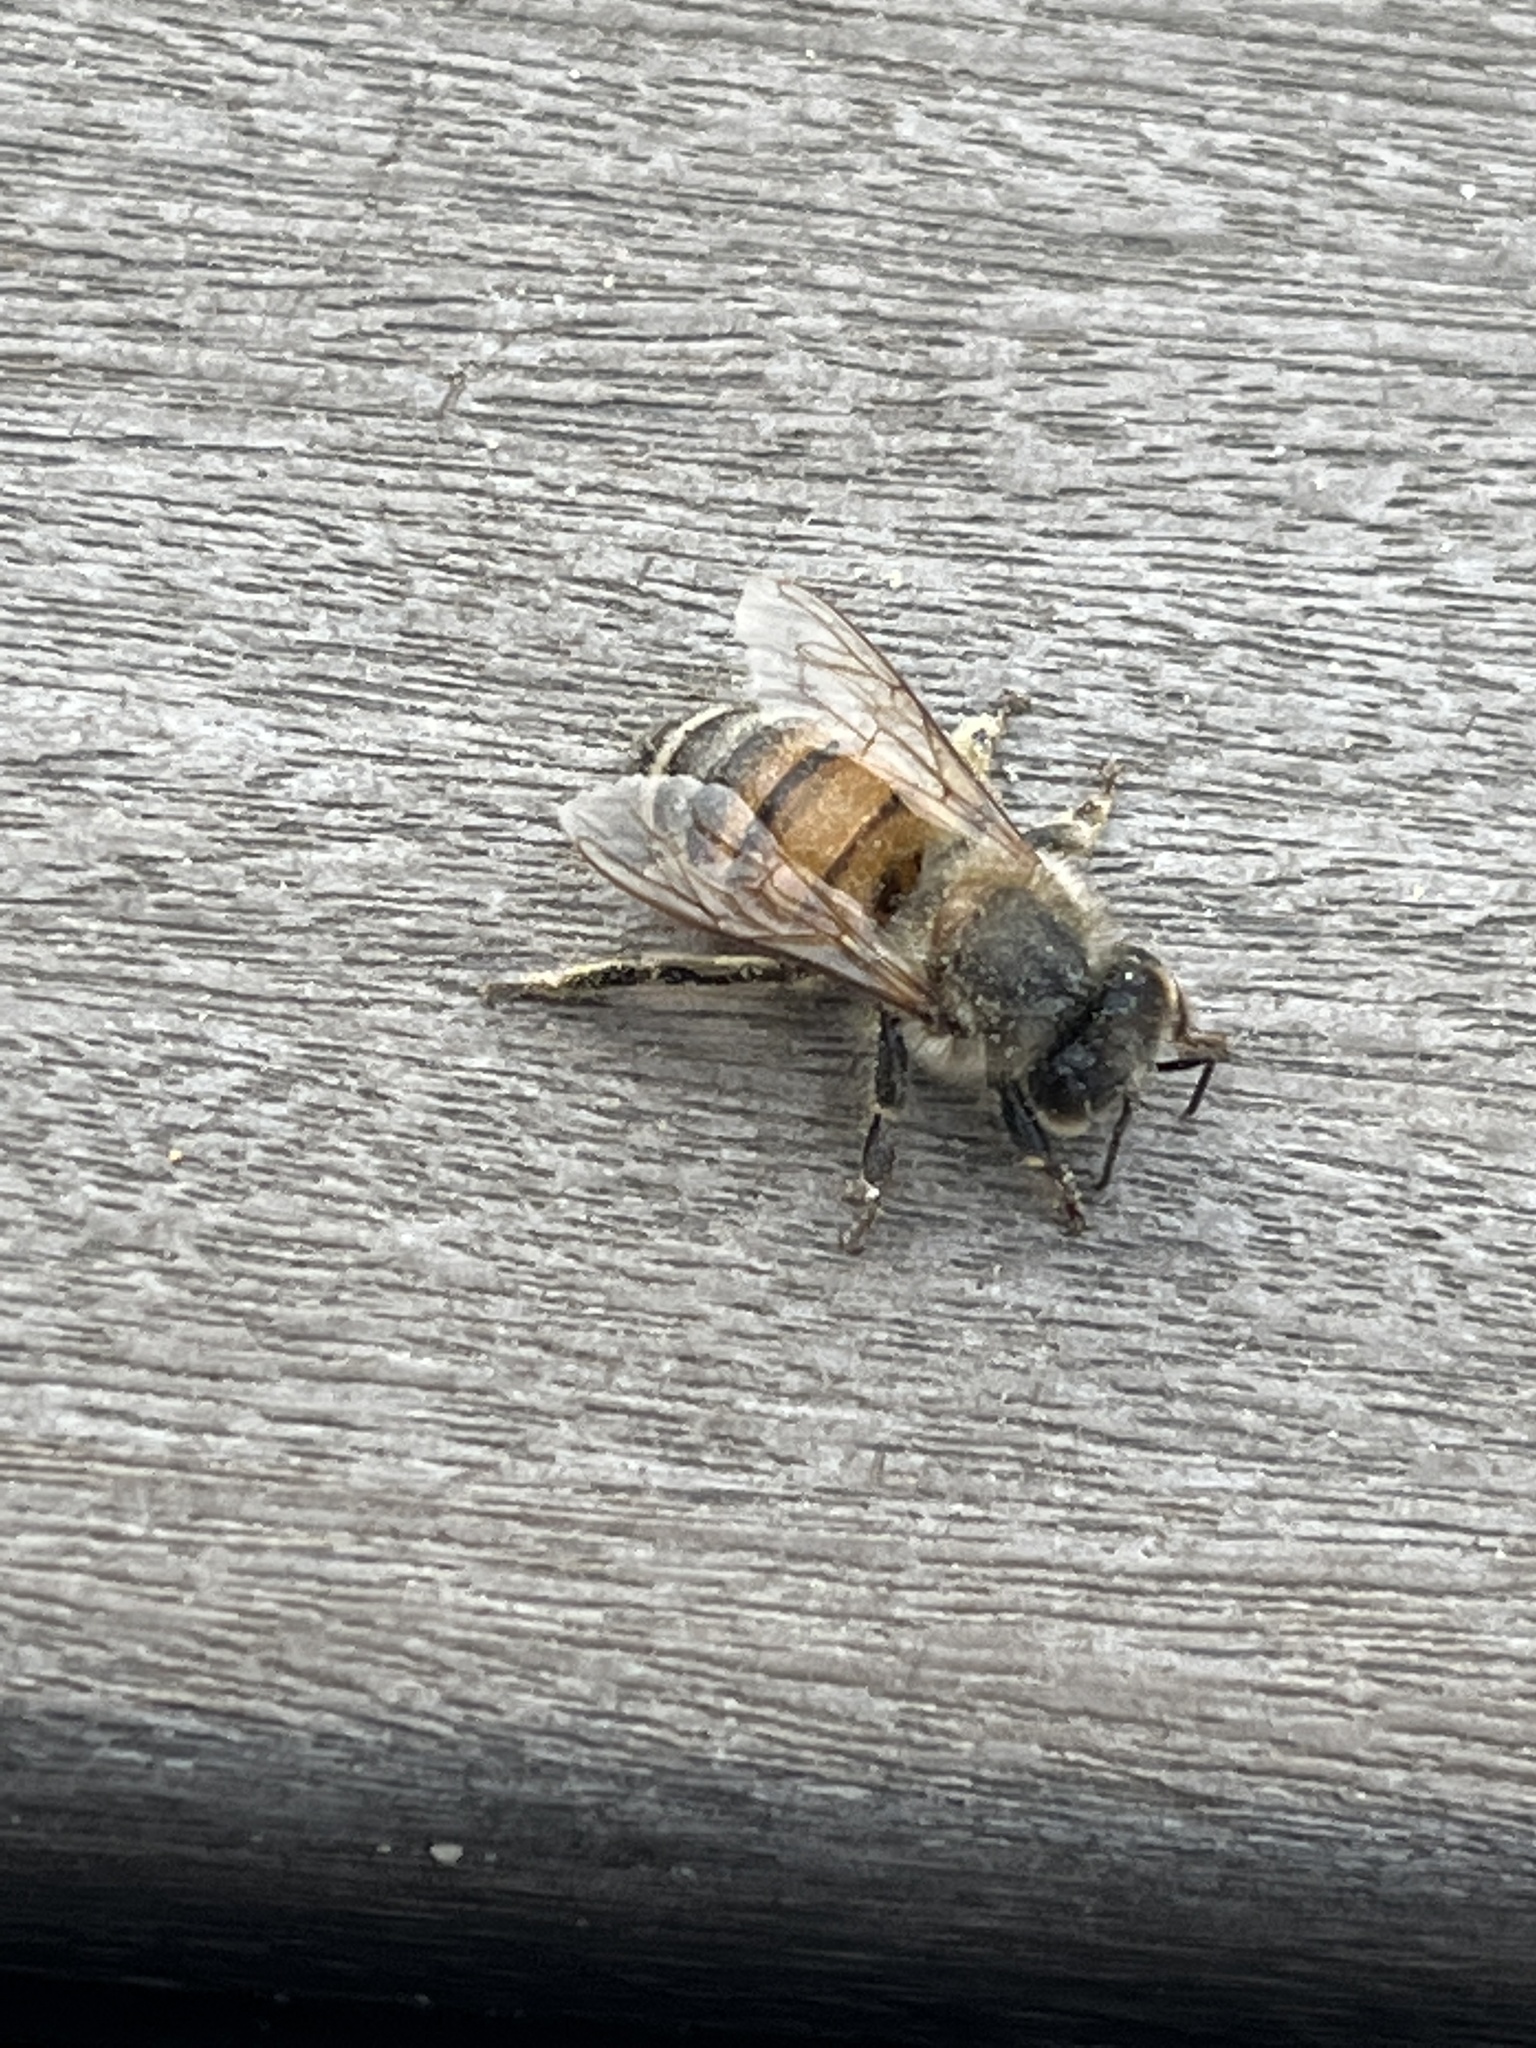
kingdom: Animalia
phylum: Arthropoda
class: Insecta
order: Hymenoptera
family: Apidae
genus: Apis
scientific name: Apis mellifera
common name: Honey bee
